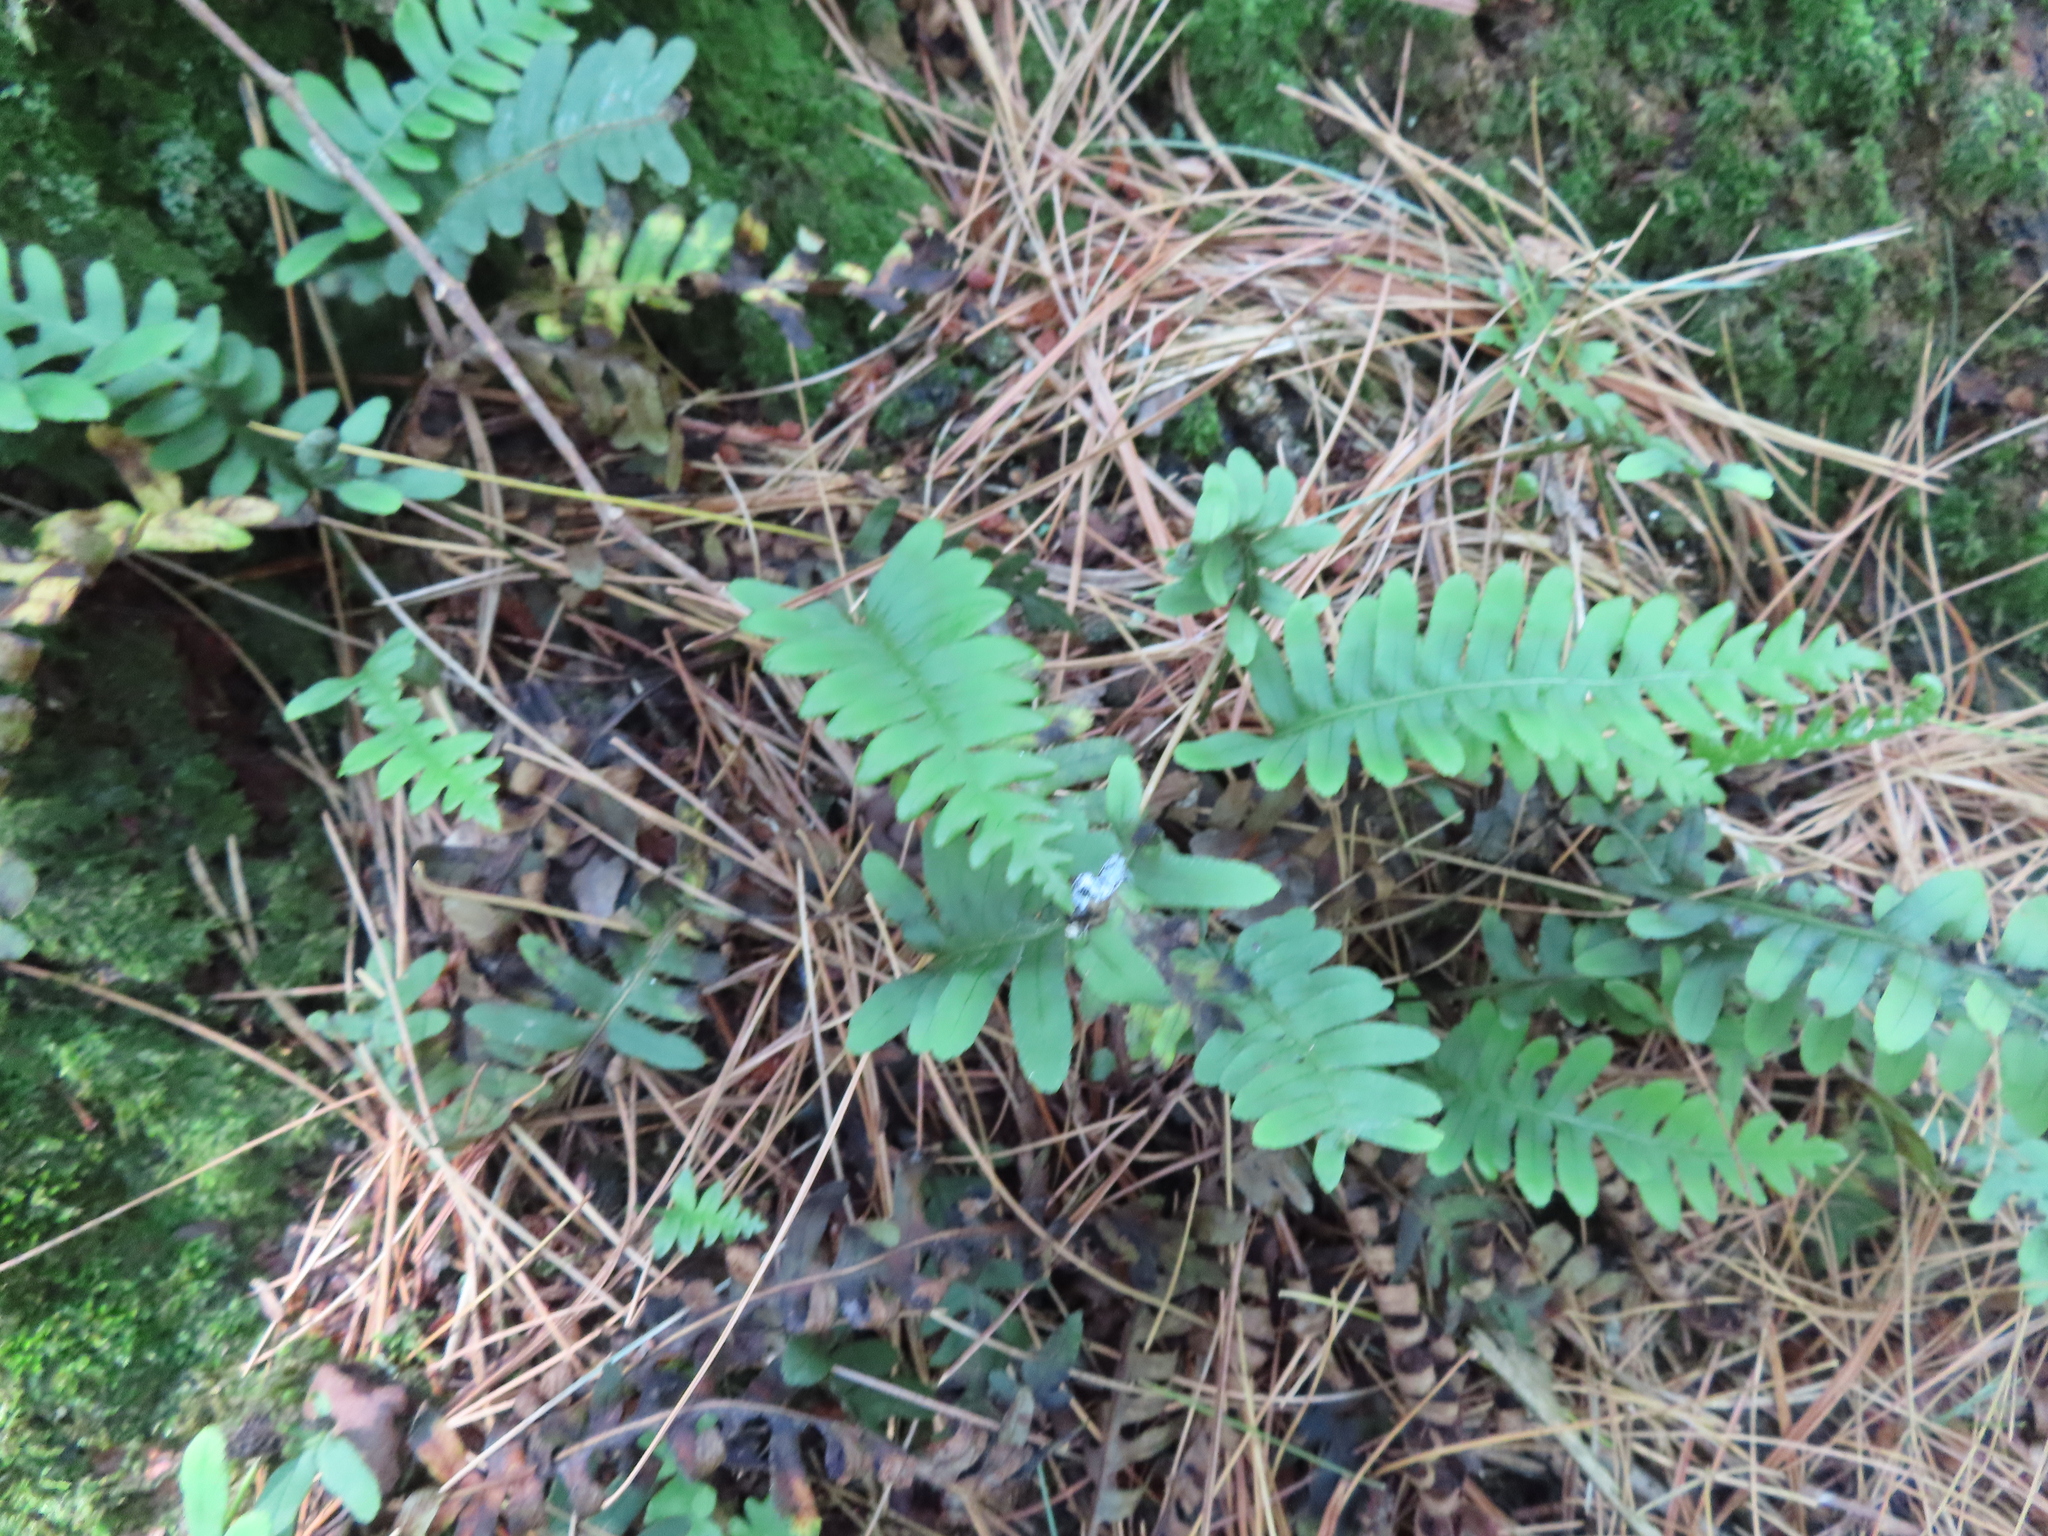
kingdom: Plantae
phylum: Tracheophyta
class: Polypodiopsida
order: Polypodiales
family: Polypodiaceae
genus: Polypodium
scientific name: Polypodium virginianum
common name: American wall fern
